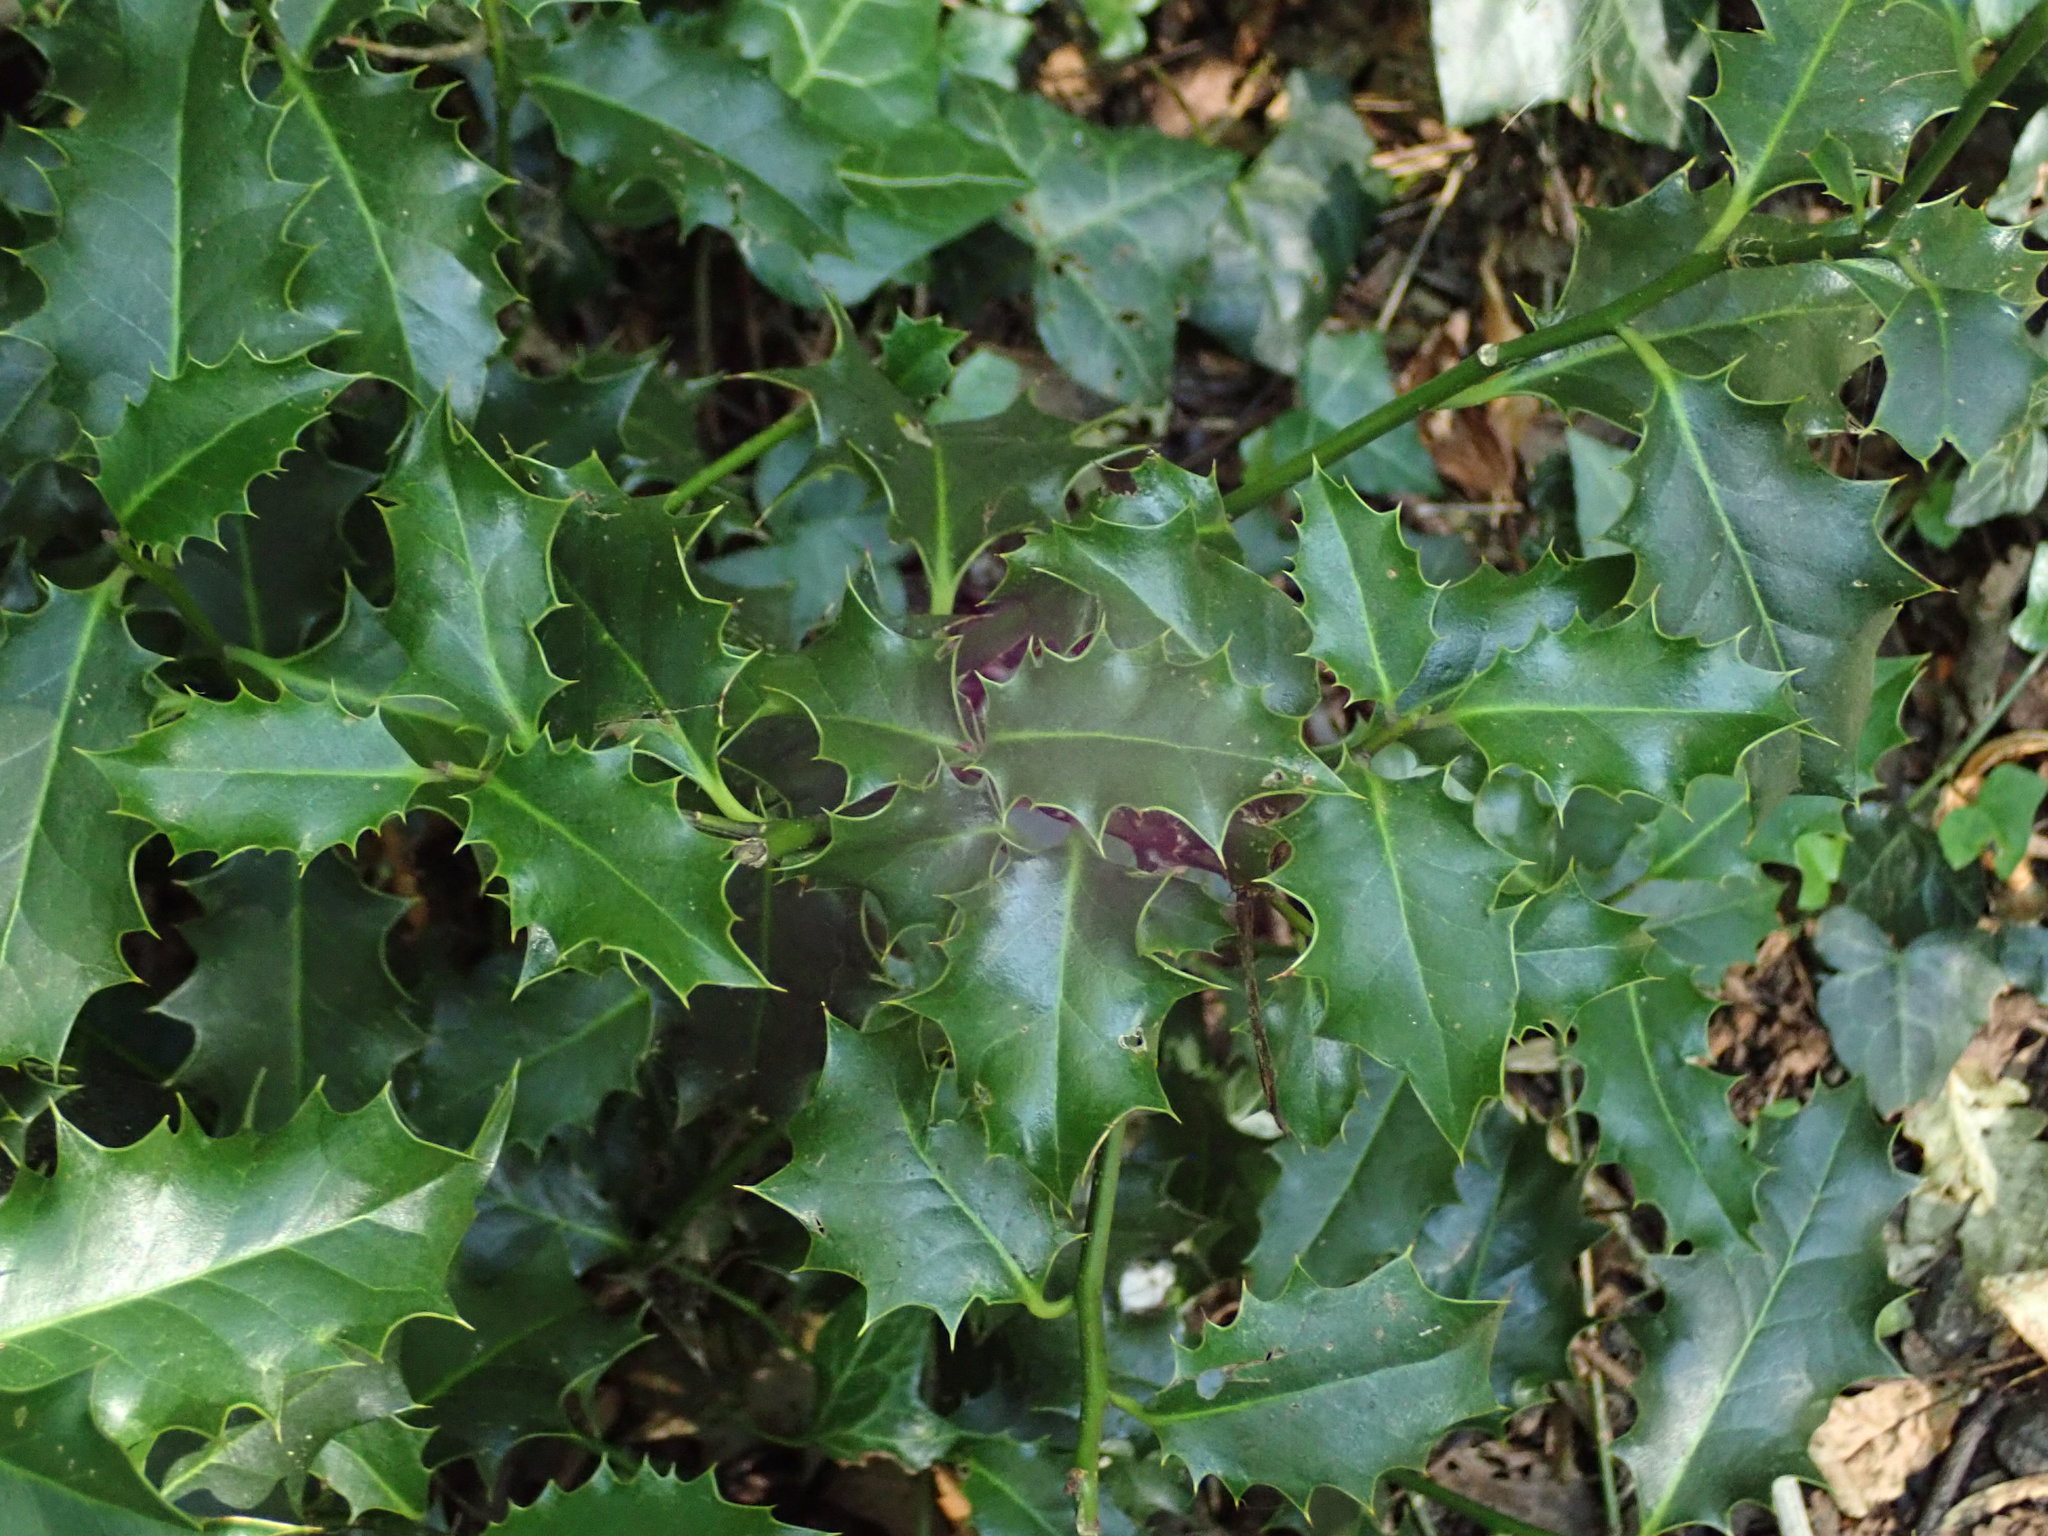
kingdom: Plantae
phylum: Tracheophyta
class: Magnoliopsida
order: Aquifoliales
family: Aquifoliaceae
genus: Ilex
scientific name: Ilex aquifolium
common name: English holly
